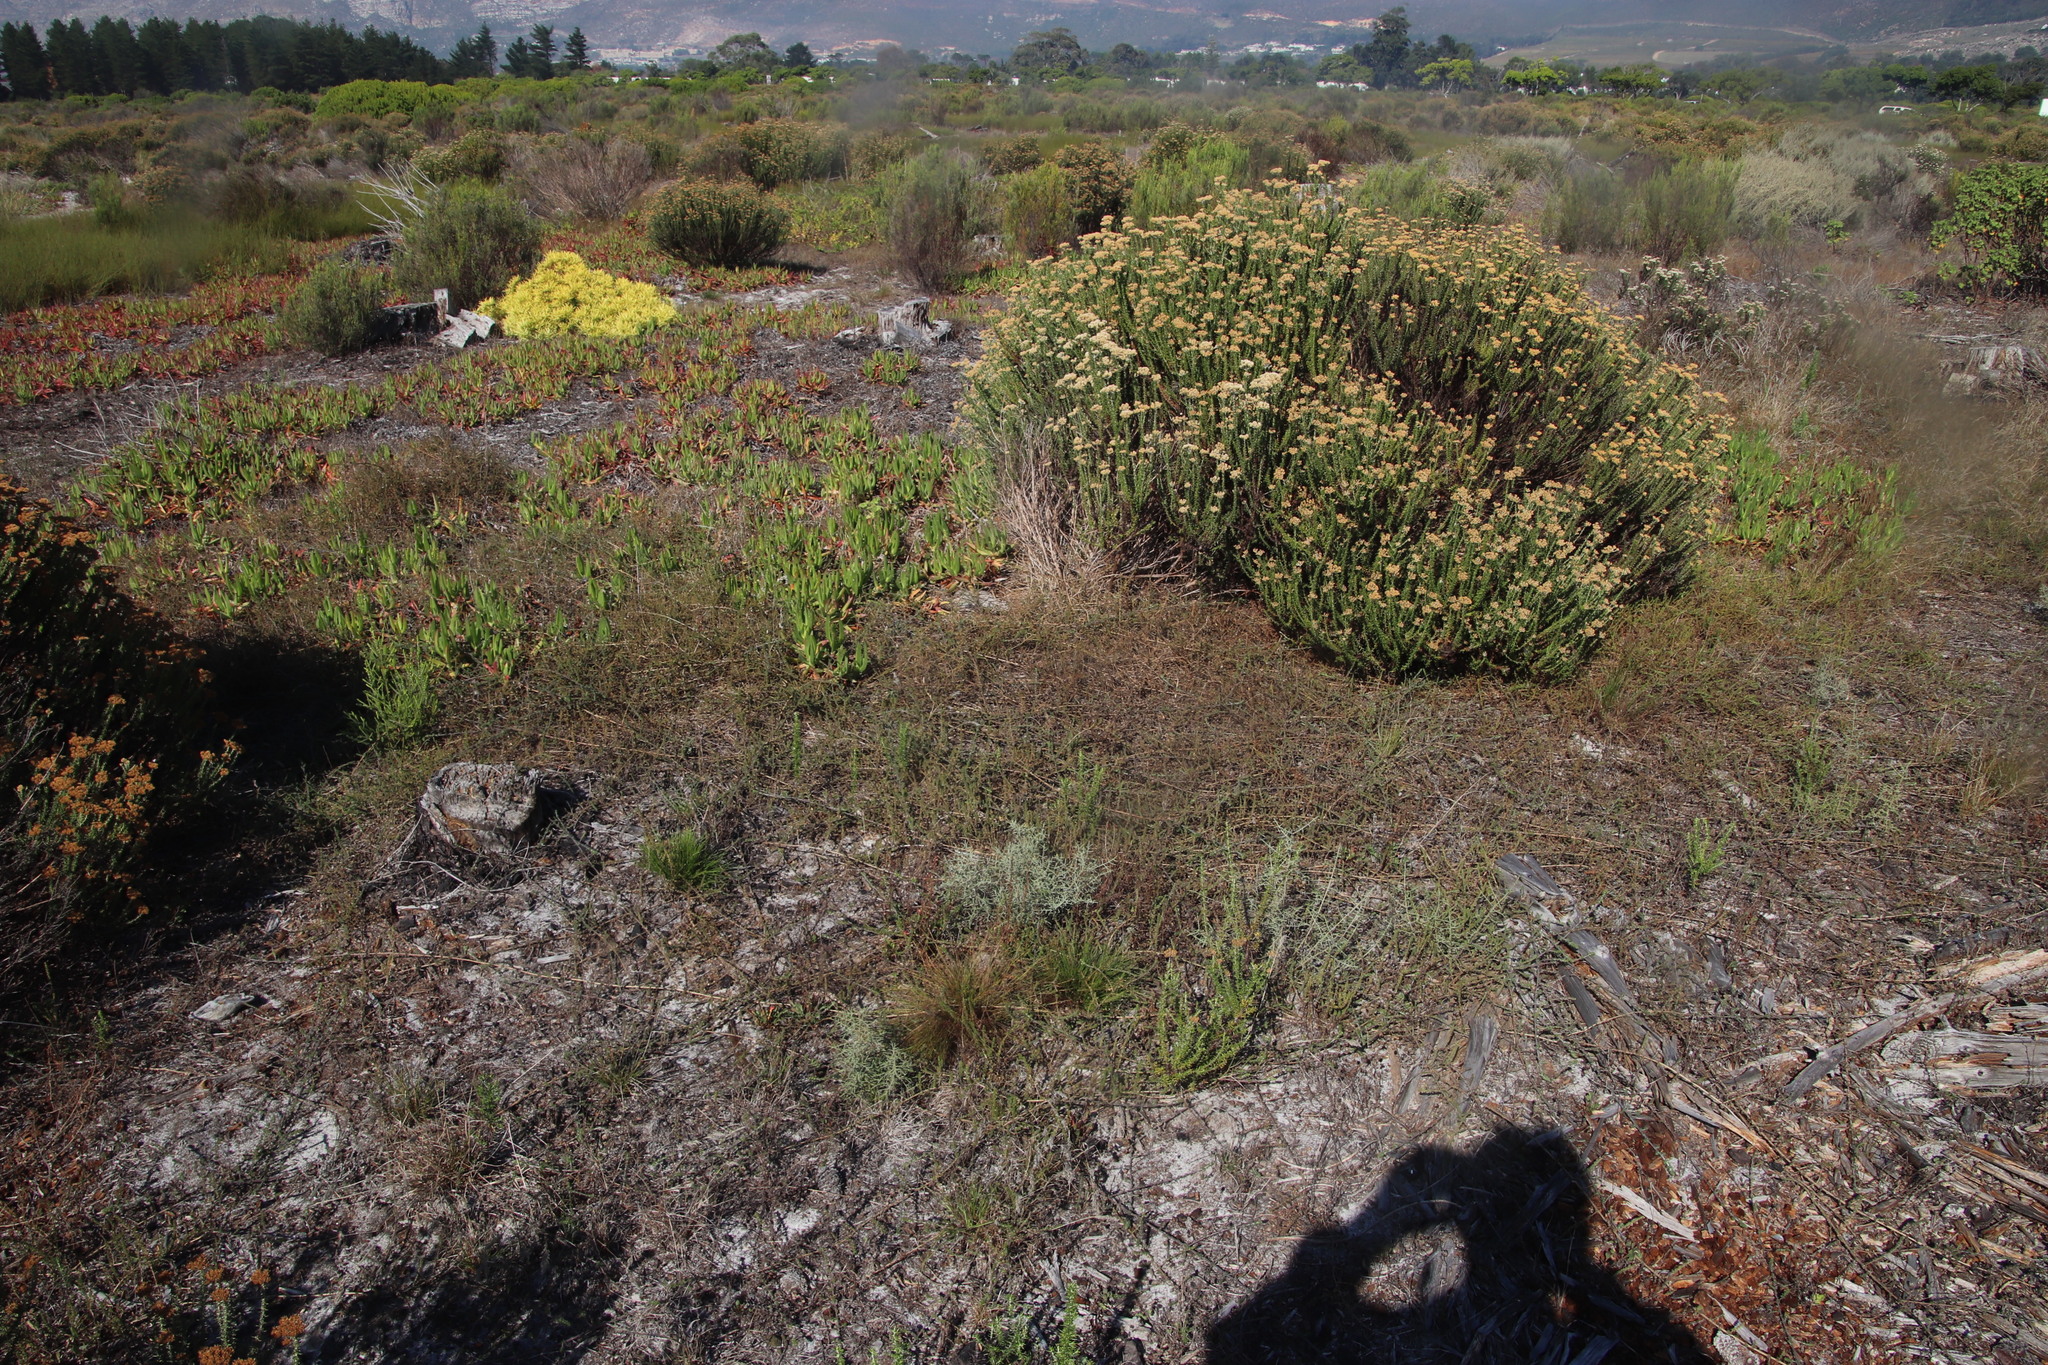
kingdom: Plantae
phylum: Tracheophyta
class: Magnoliopsida
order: Fabales
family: Fabaceae
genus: Aspalathus
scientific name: Aspalathus retroflexa
